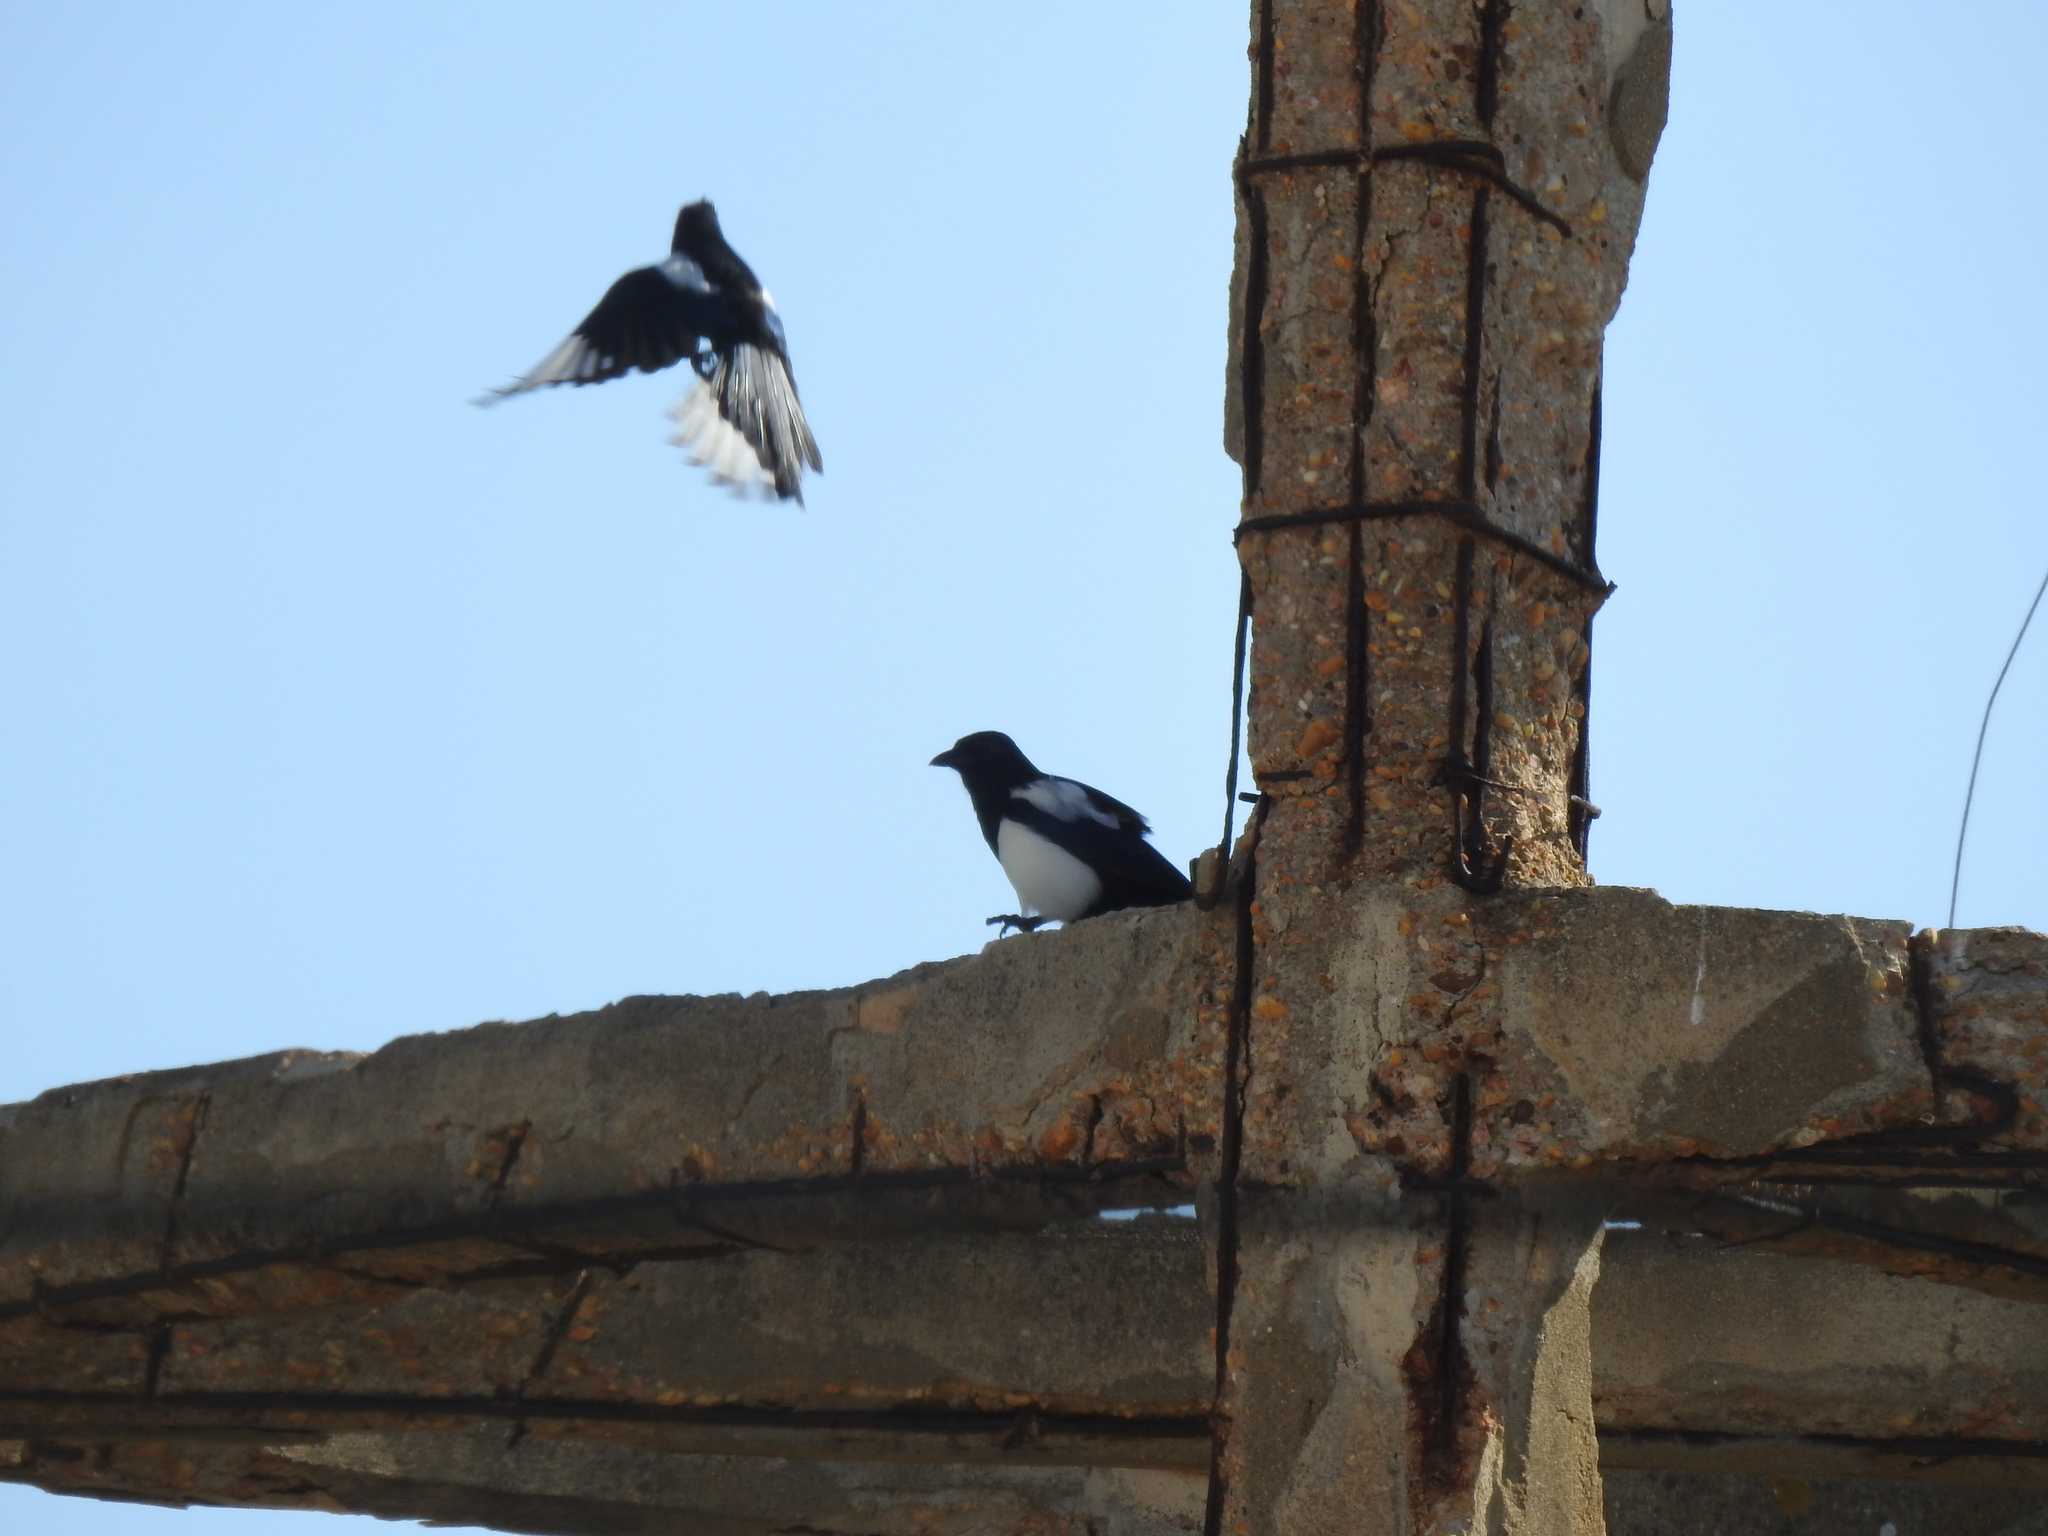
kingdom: Animalia
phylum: Chordata
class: Aves
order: Passeriformes
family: Corvidae
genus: Pica
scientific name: Pica pica
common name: Eurasian magpie
